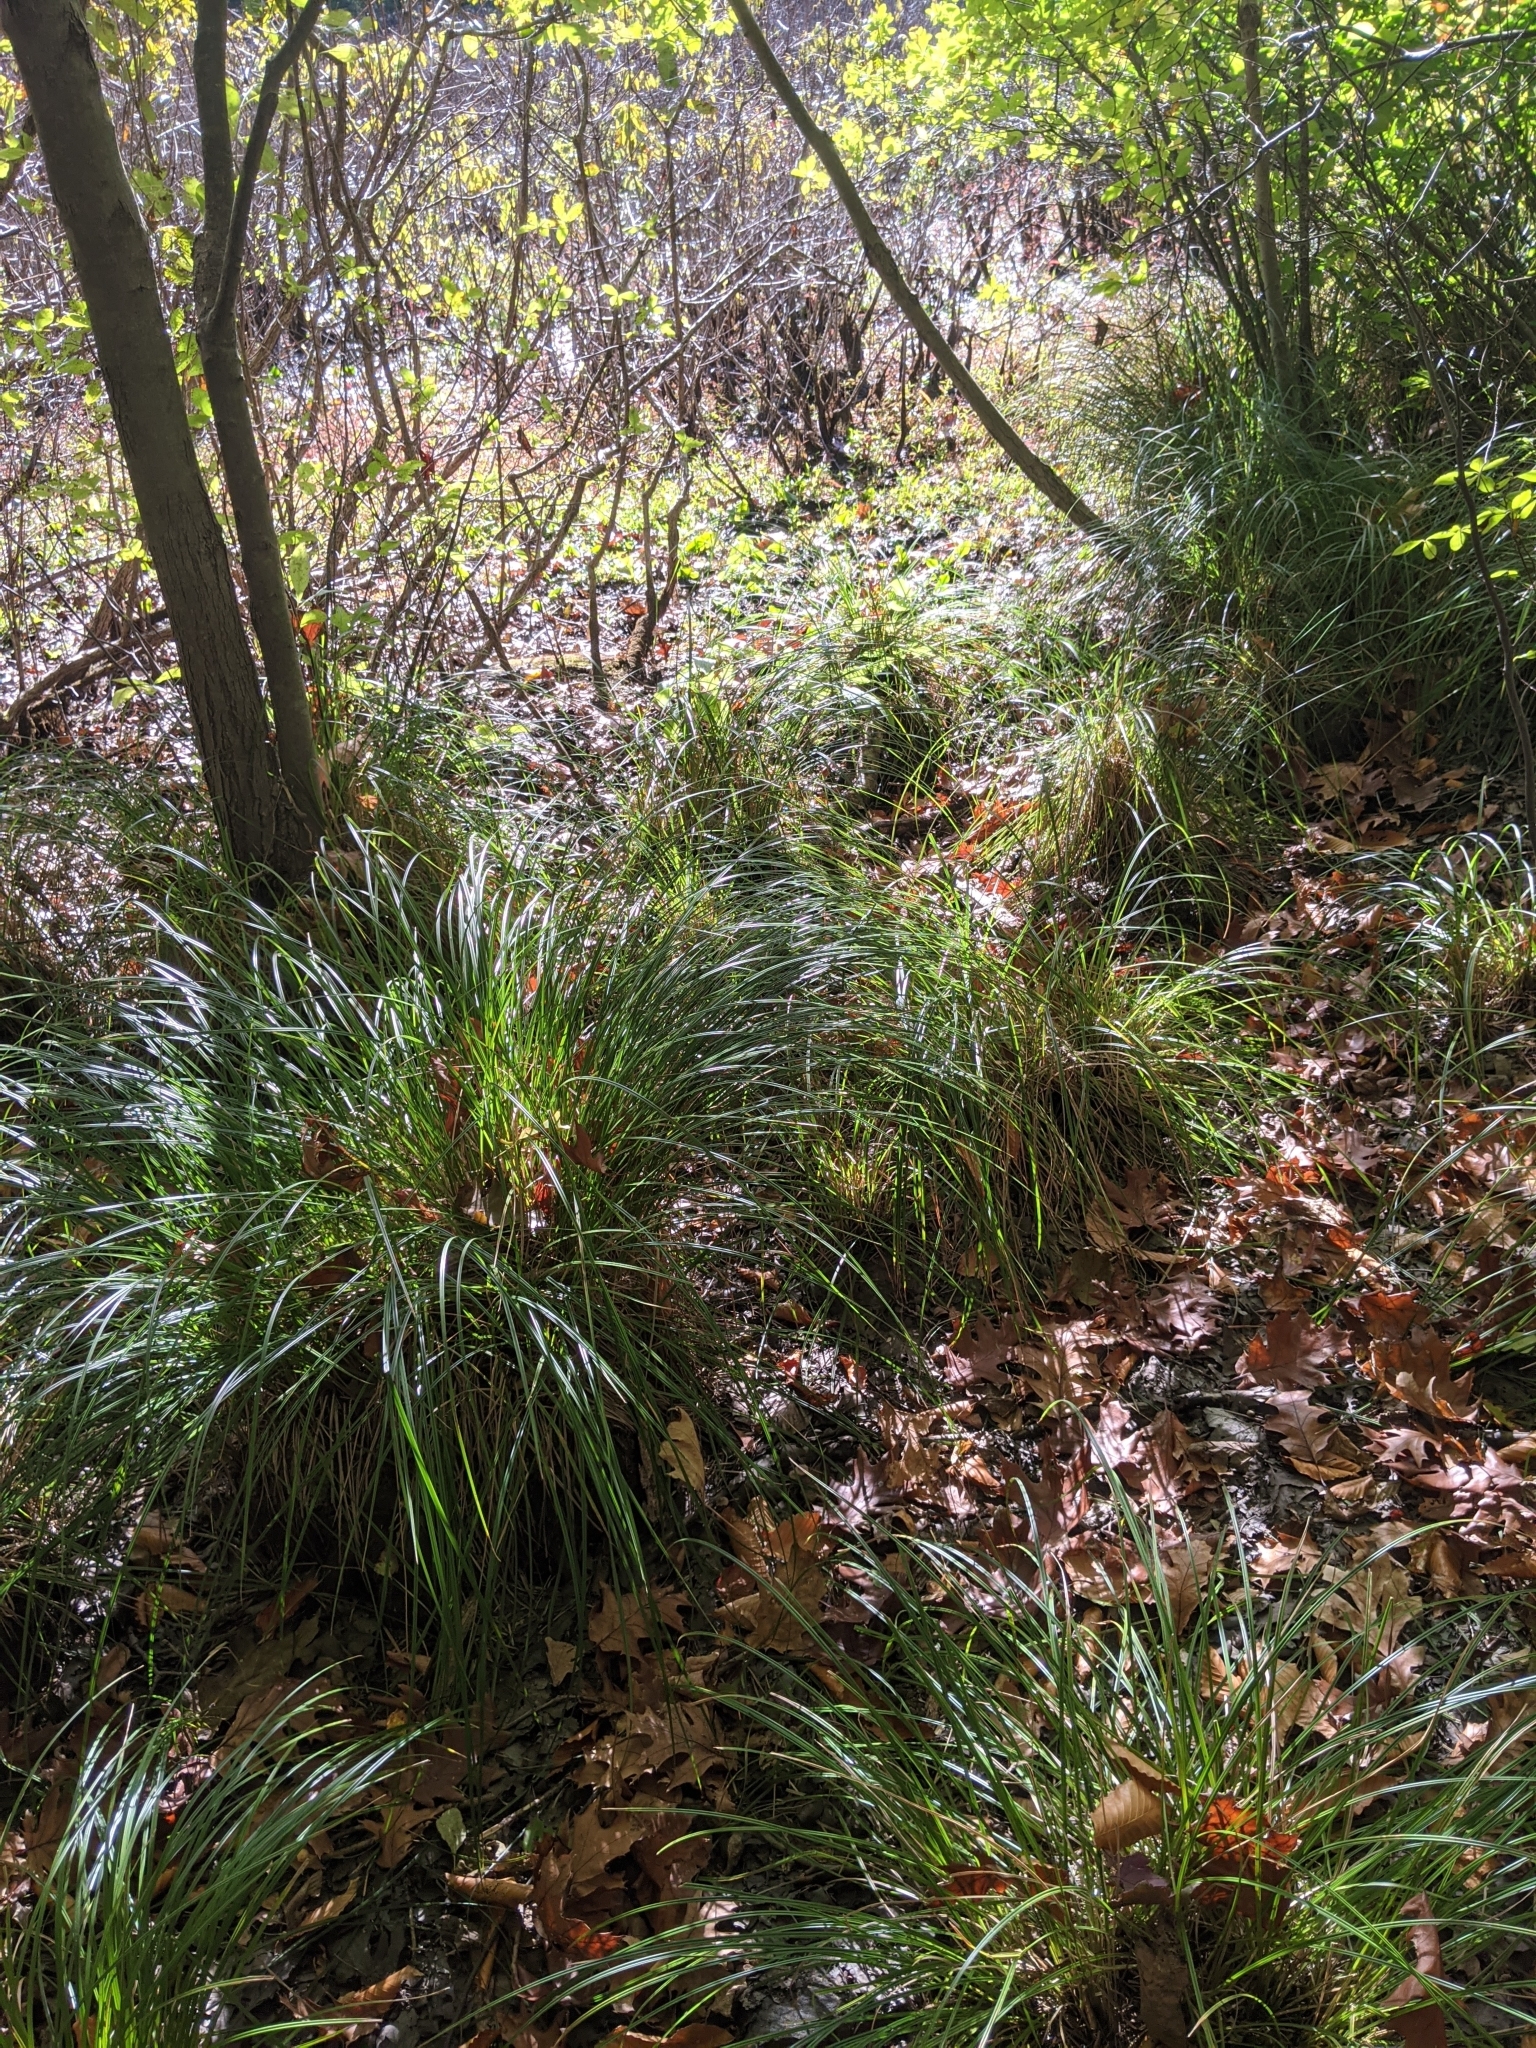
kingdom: Plantae
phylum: Tracheophyta
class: Liliopsida
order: Poales
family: Cyperaceae
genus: Carex
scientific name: Carex stricta
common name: Hummock sedge
